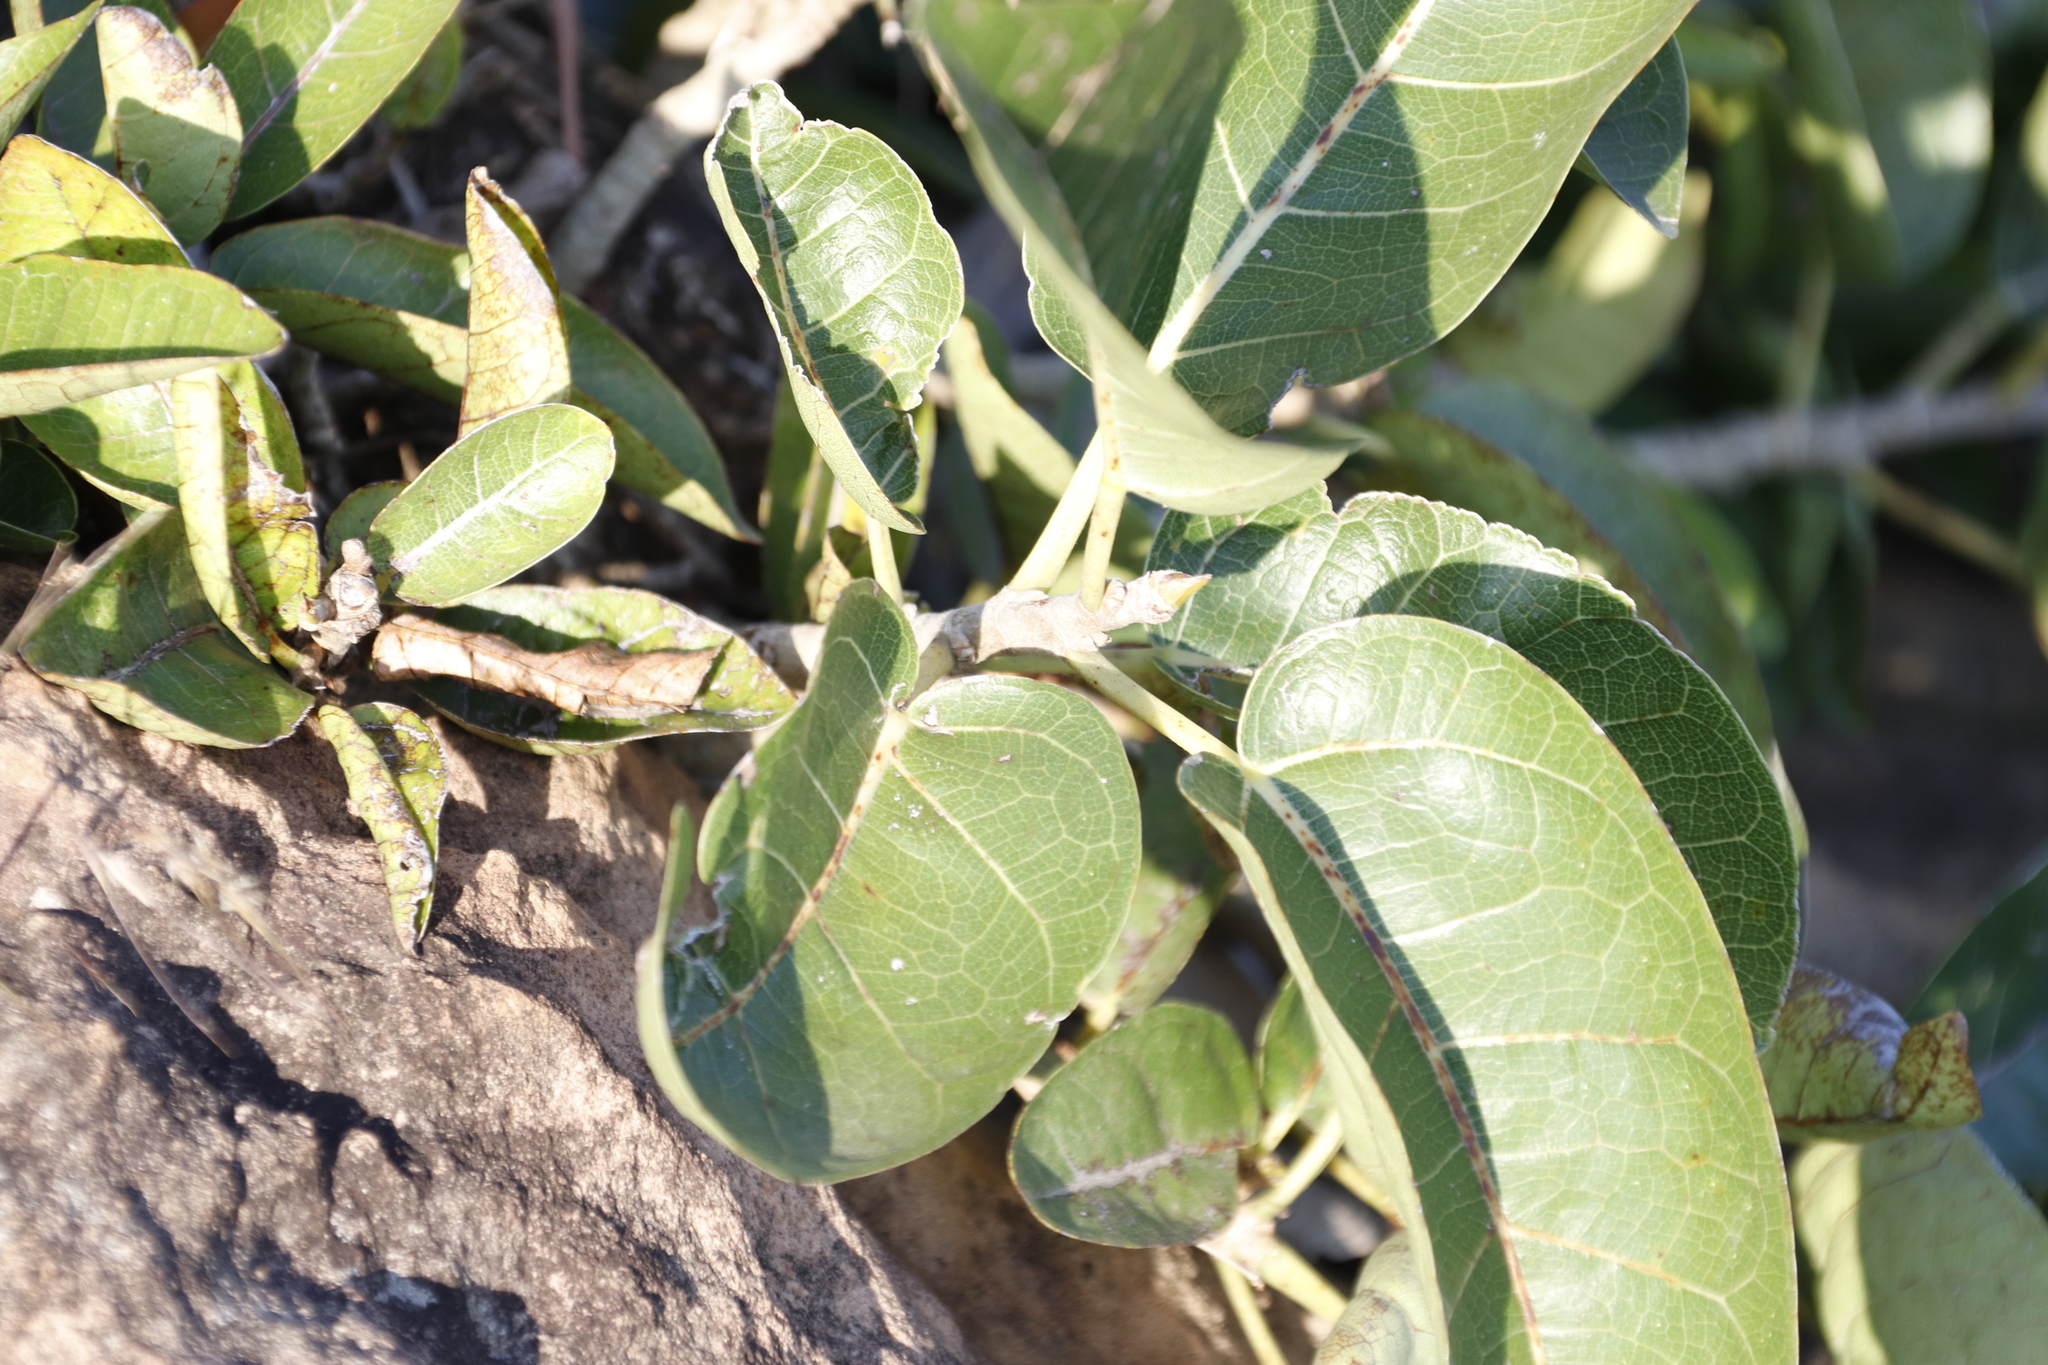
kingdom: Plantae
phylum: Tracheophyta
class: Magnoliopsida
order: Rosales
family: Moraceae
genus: Ficus
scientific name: Ficus ingens
